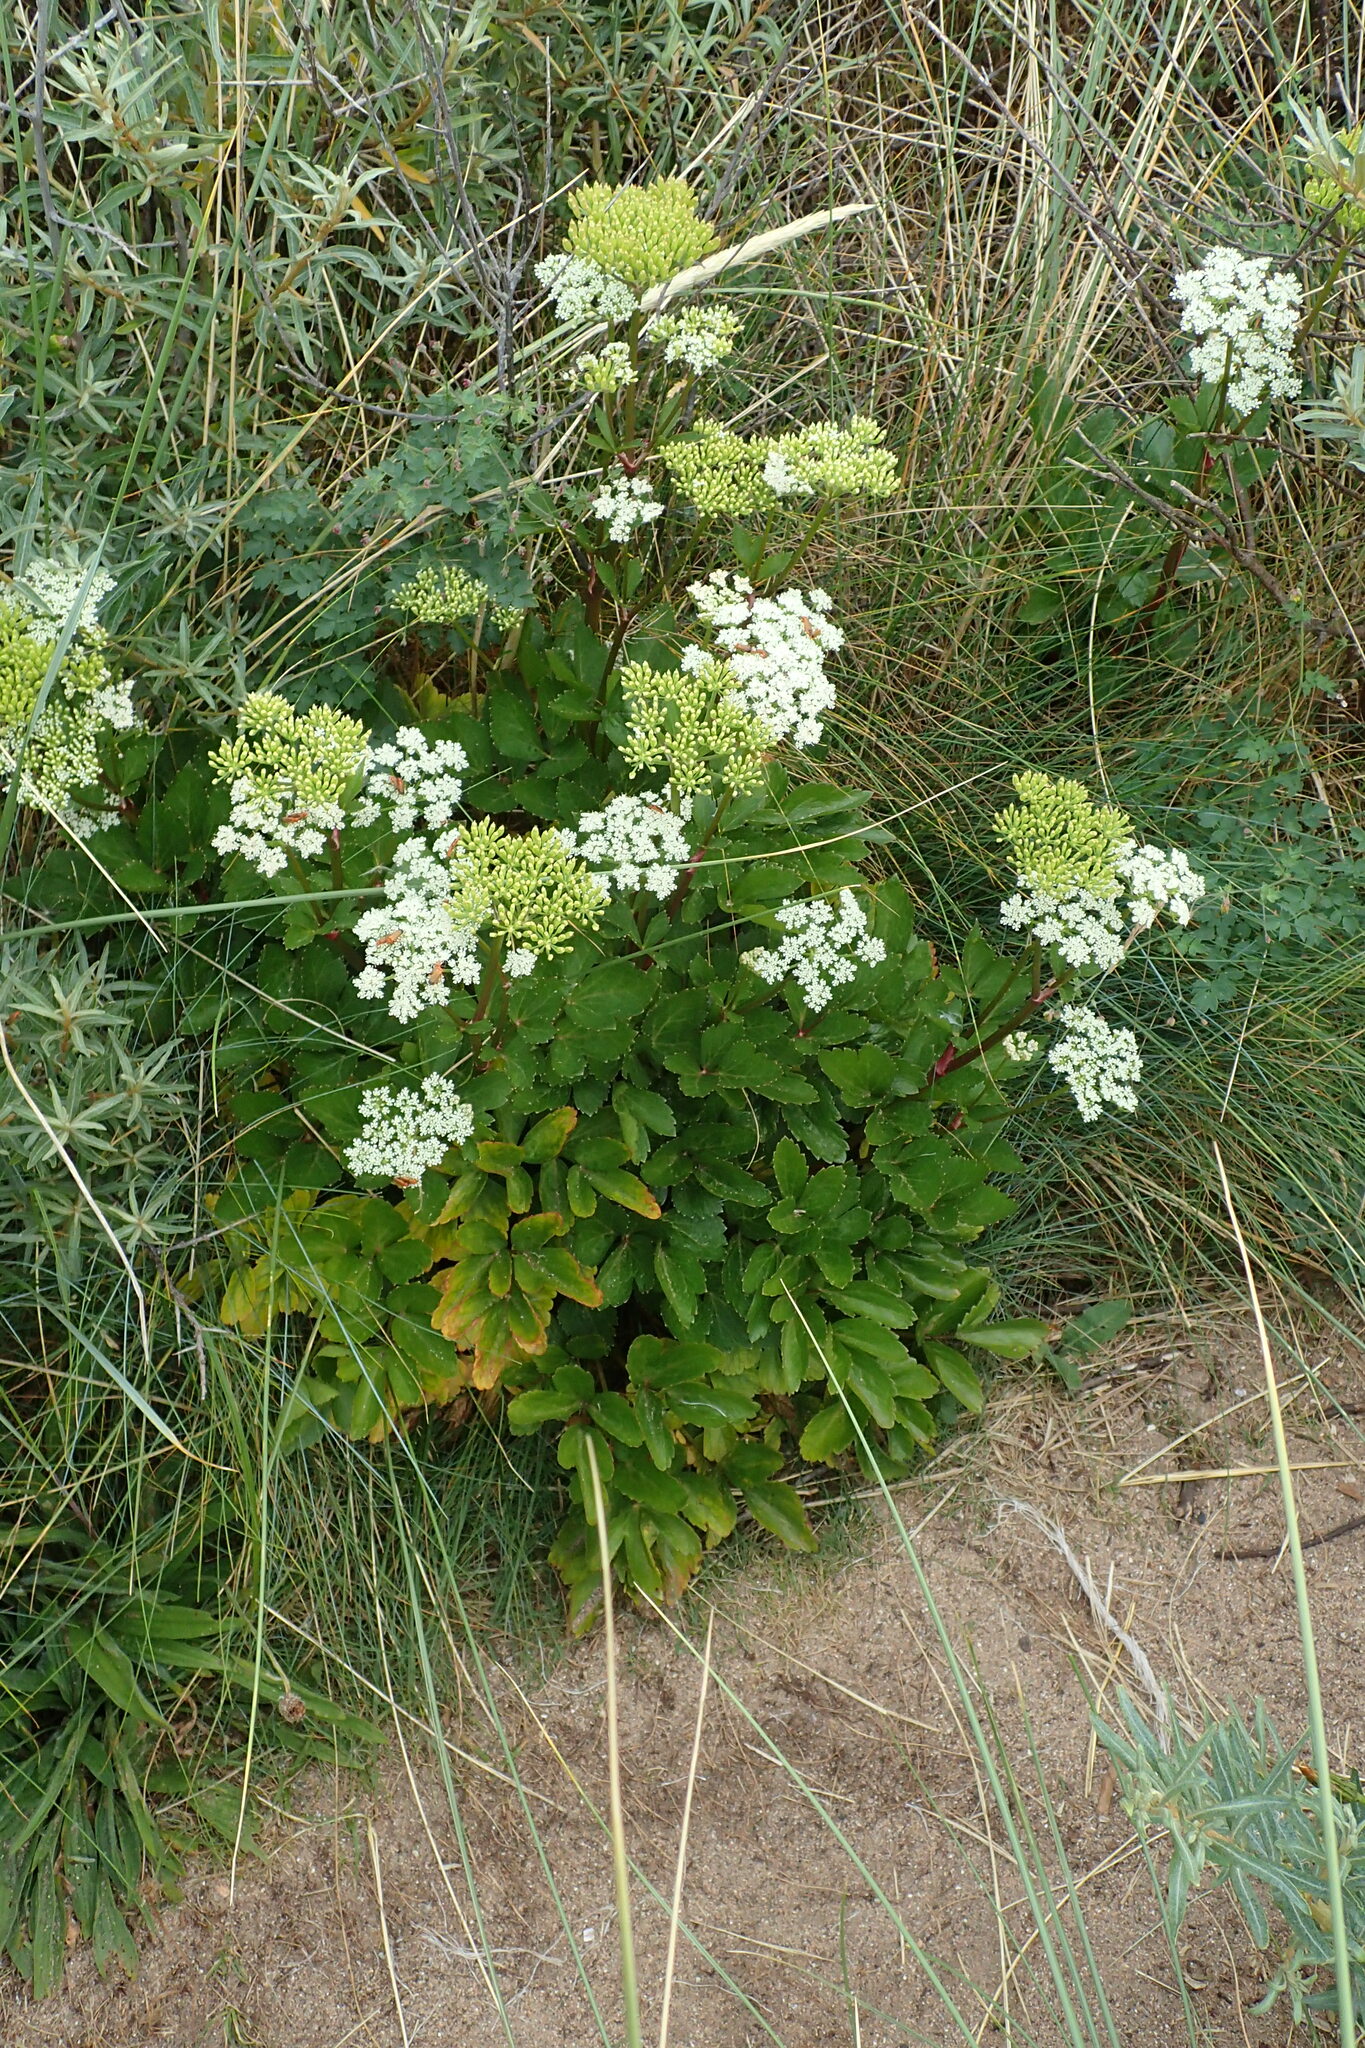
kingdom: Plantae
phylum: Tracheophyta
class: Magnoliopsida
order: Apiales
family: Apiaceae
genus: Ligusticum
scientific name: Ligusticum scothicum
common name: Beach lovage
